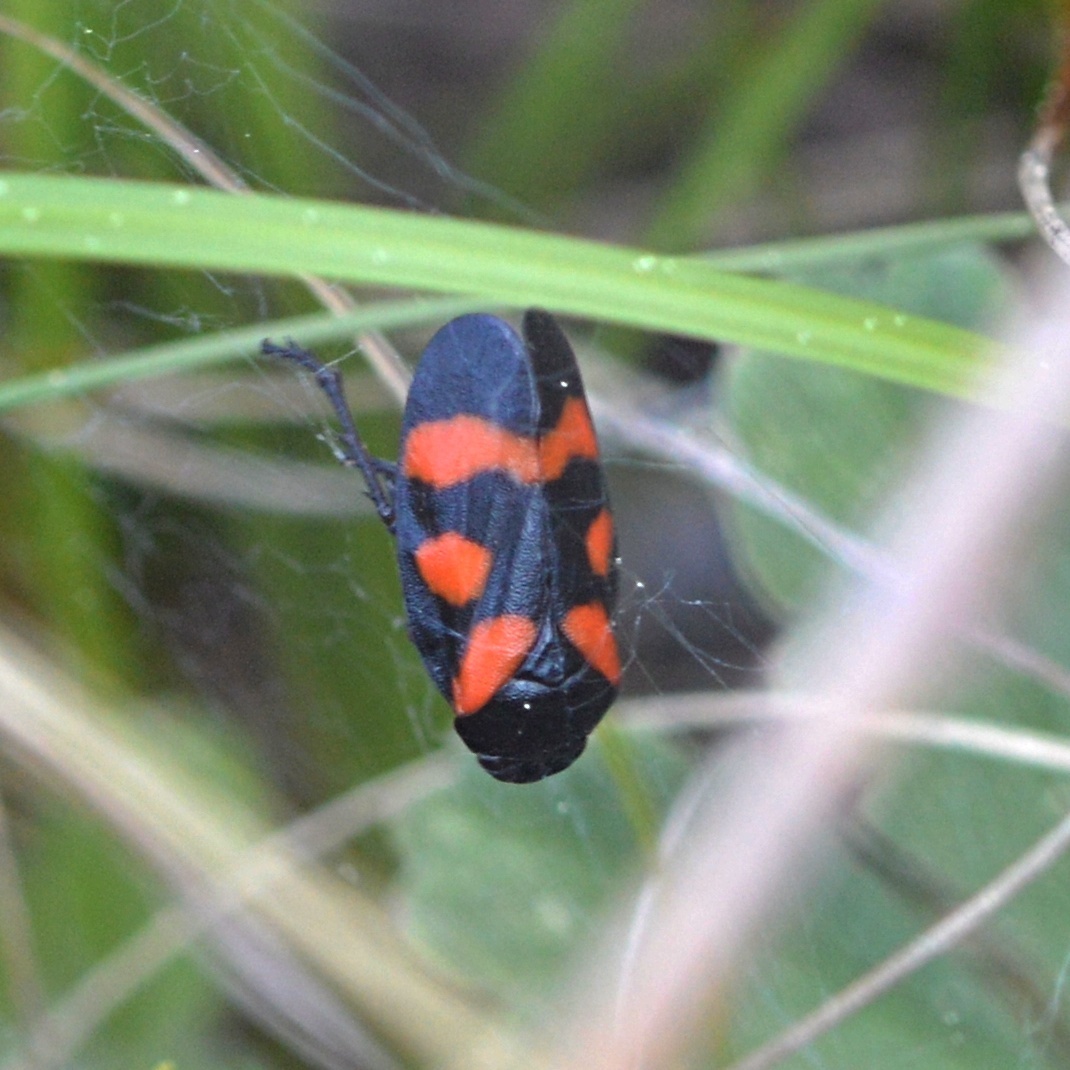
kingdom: Animalia
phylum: Arthropoda
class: Insecta
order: Hemiptera
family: Cercopidae
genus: Cercopis
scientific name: Cercopis arcuata
